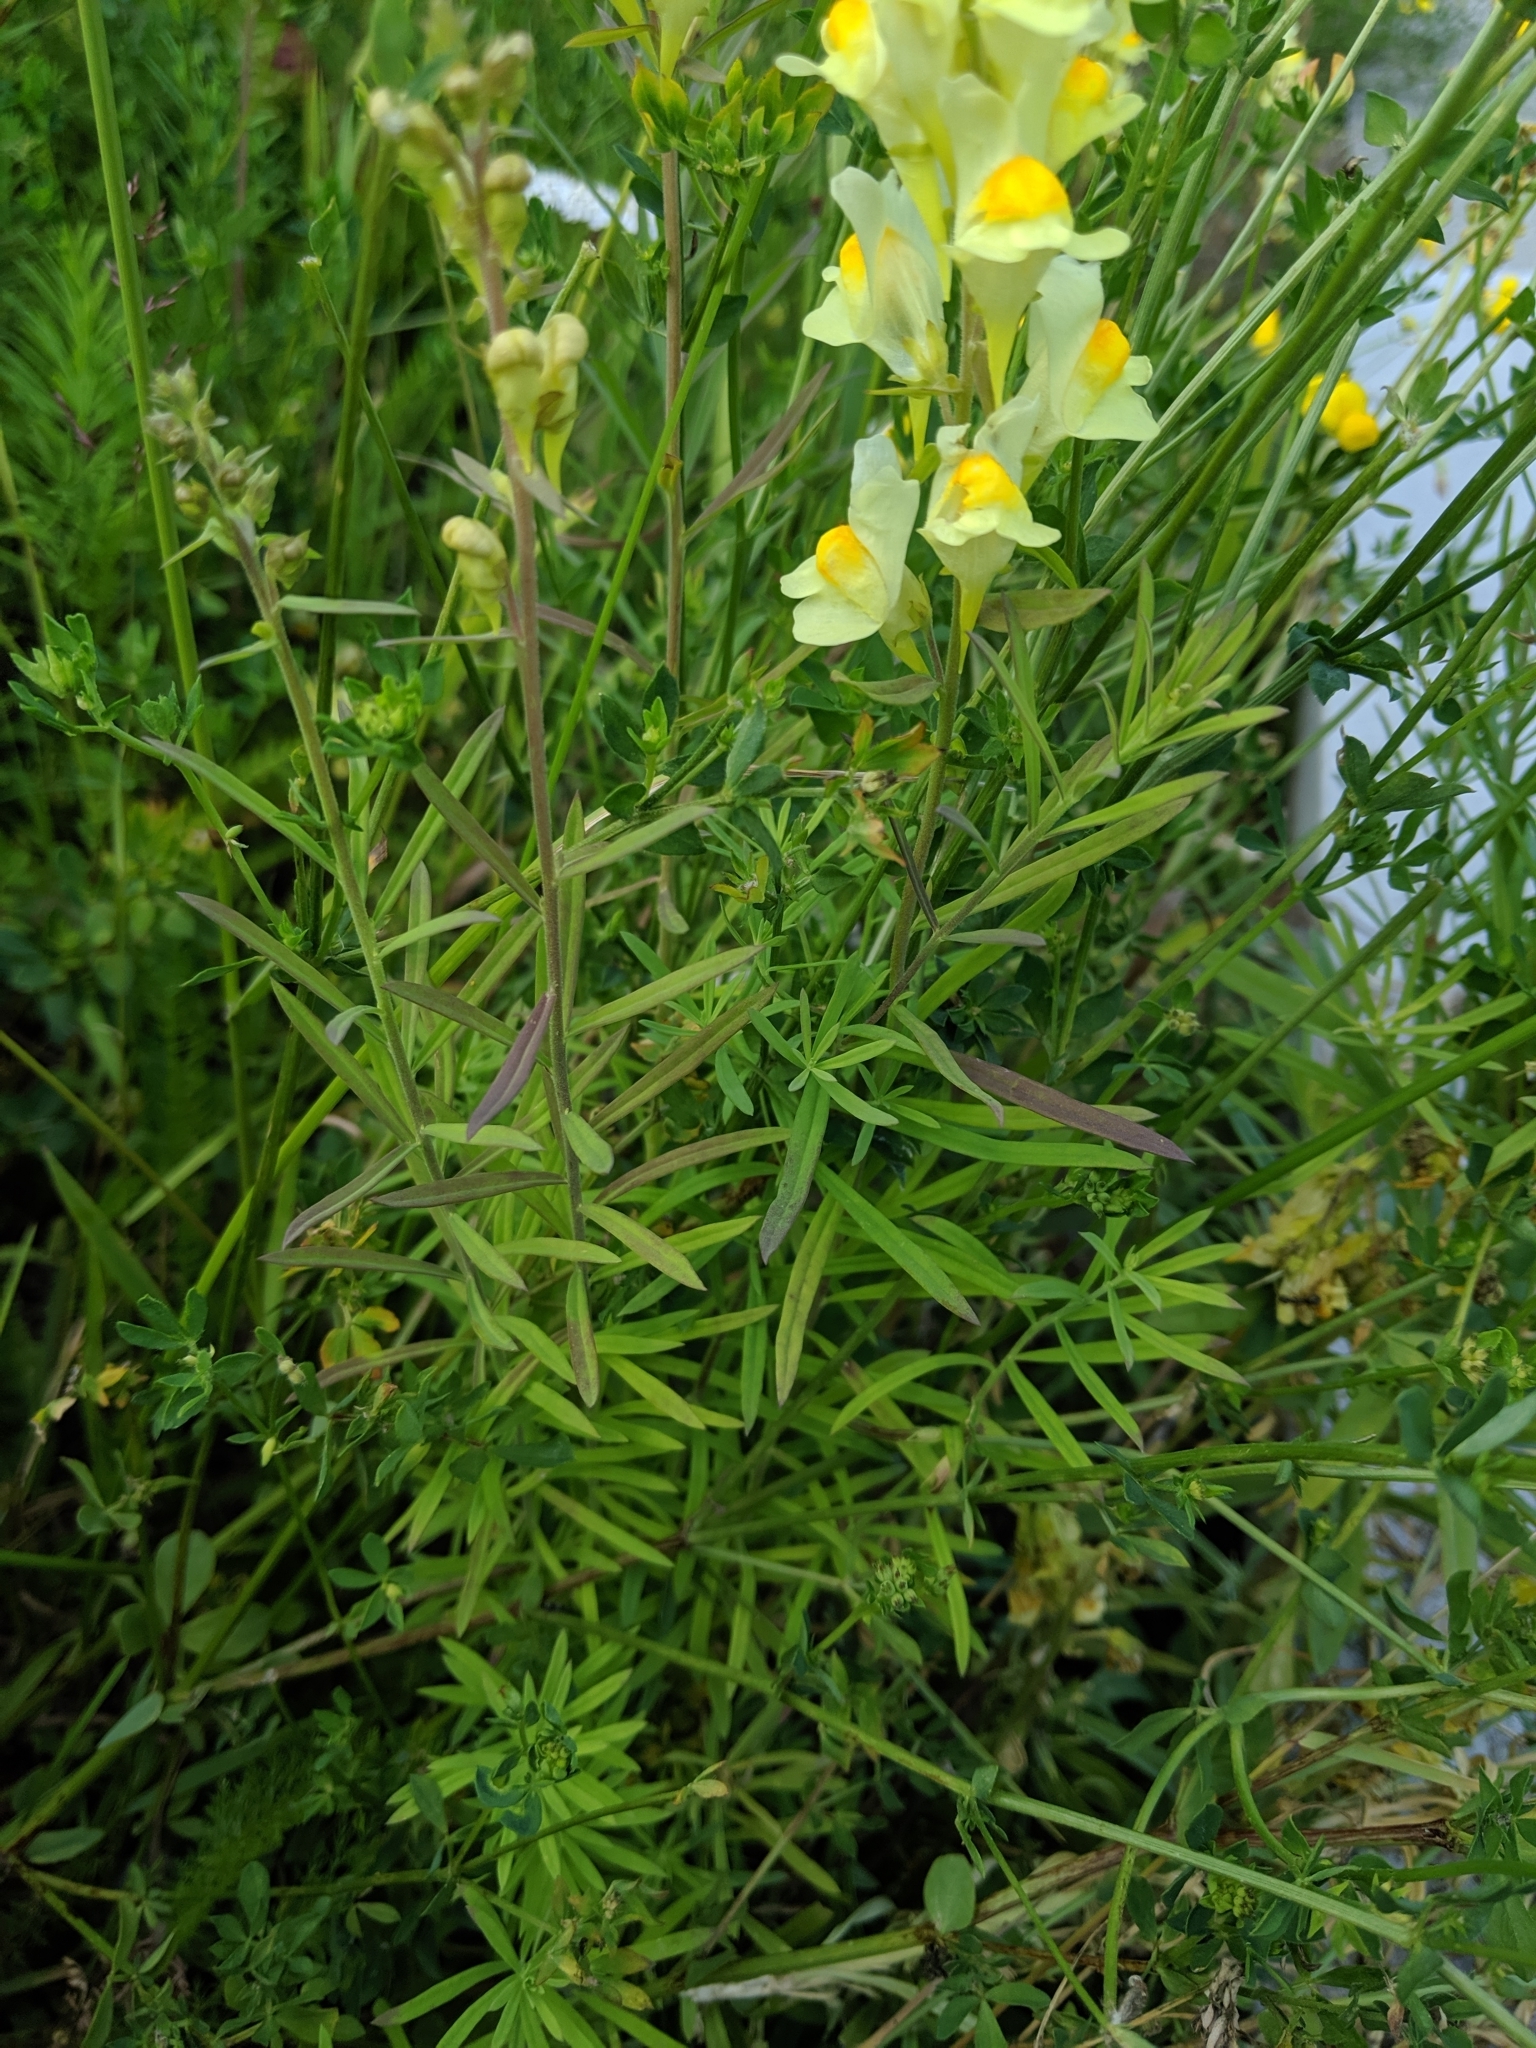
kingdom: Plantae
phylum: Tracheophyta
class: Magnoliopsida
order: Lamiales
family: Plantaginaceae
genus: Linaria
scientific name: Linaria vulgaris
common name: Butter and eggs
